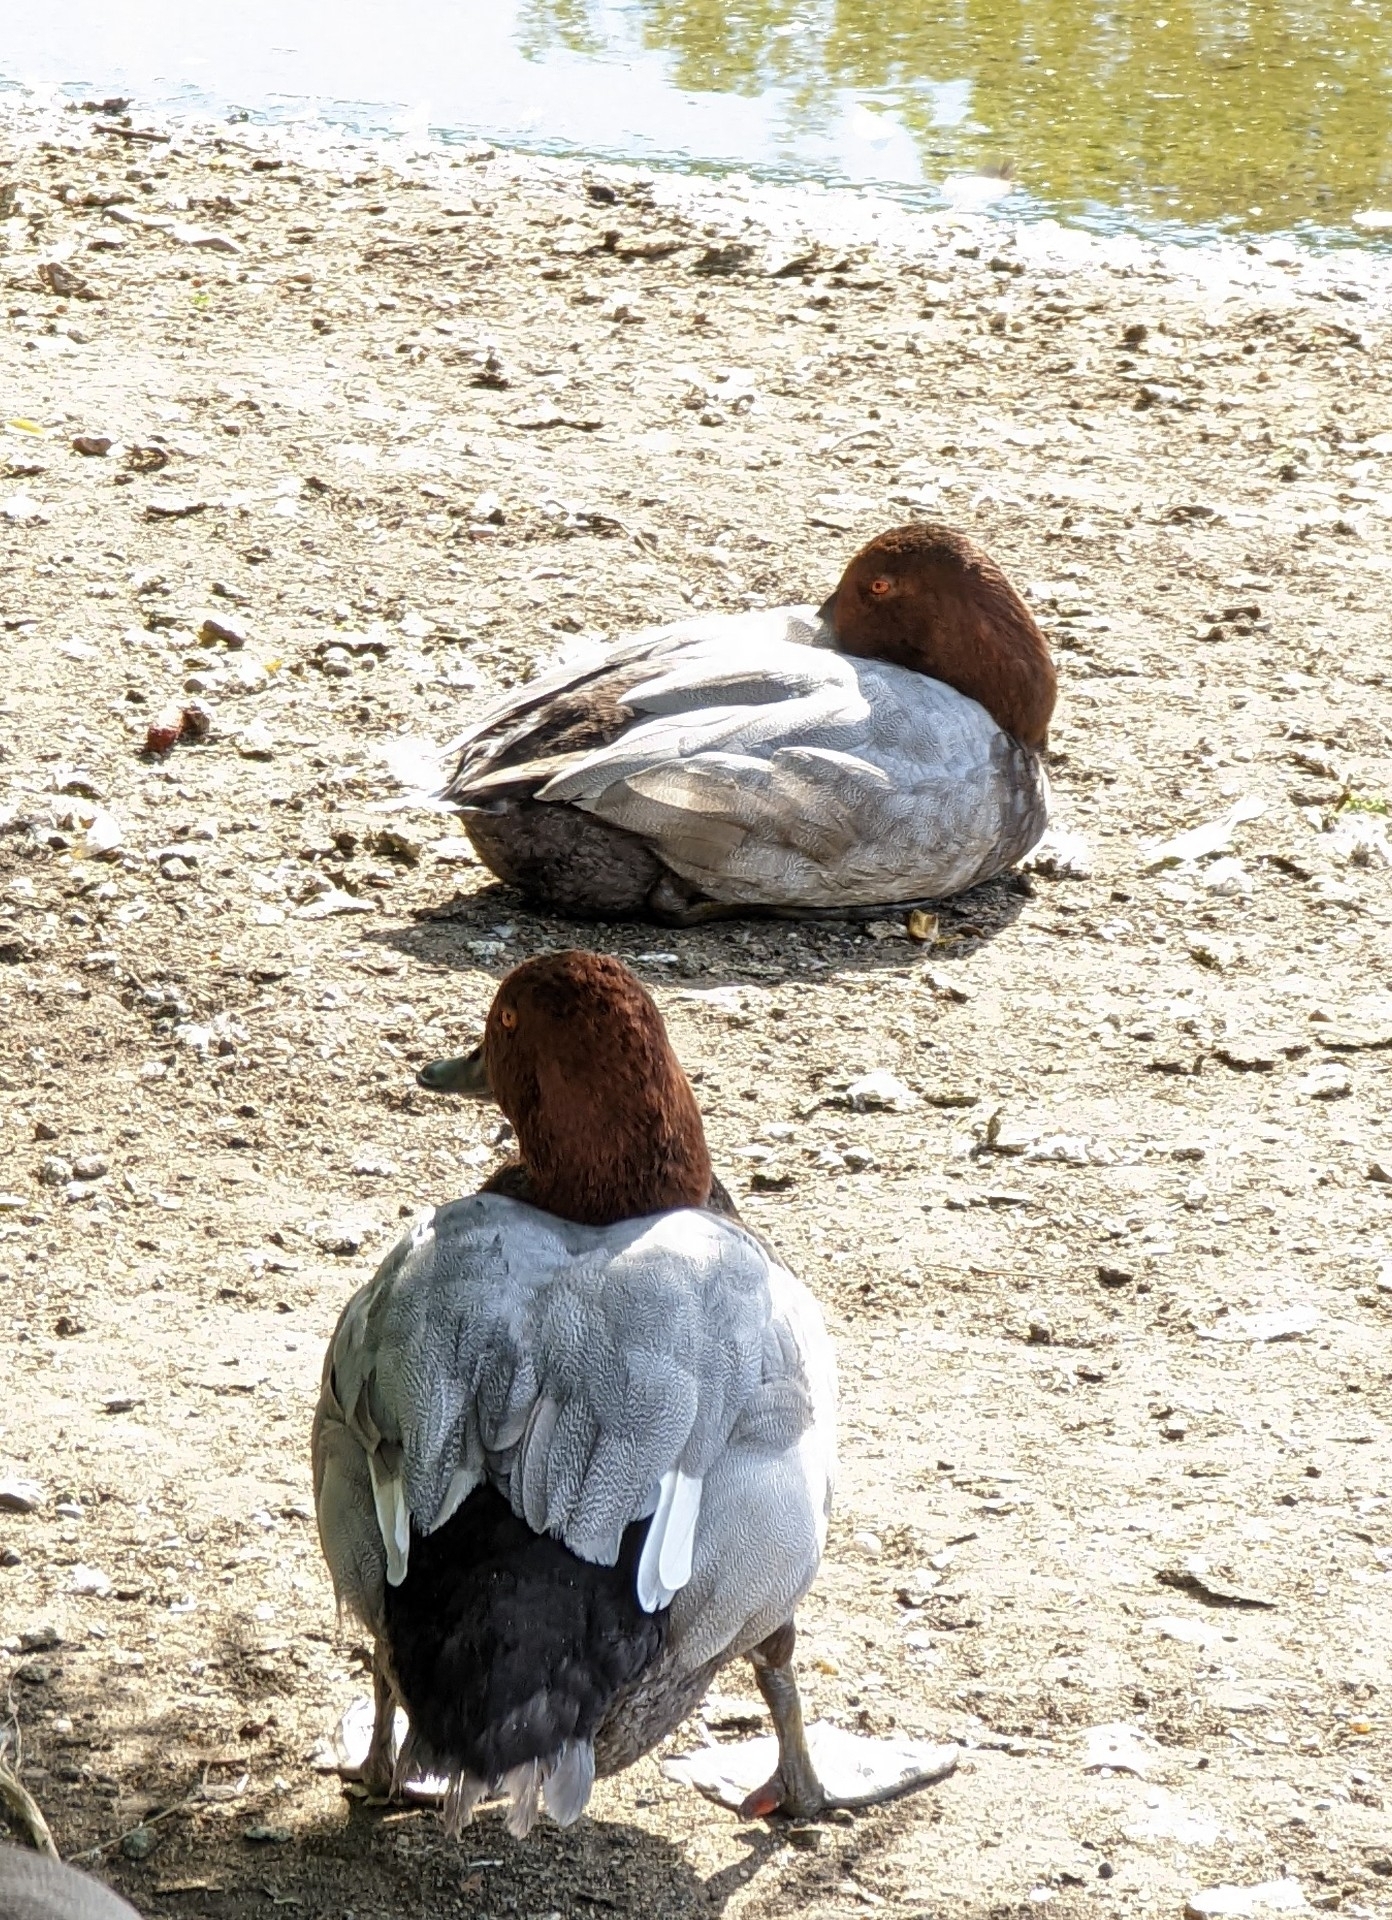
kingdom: Animalia
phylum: Chordata
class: Aves
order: Anseriformes
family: Anatidae
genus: Aythya
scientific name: Aythya ferina
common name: Common pochard
